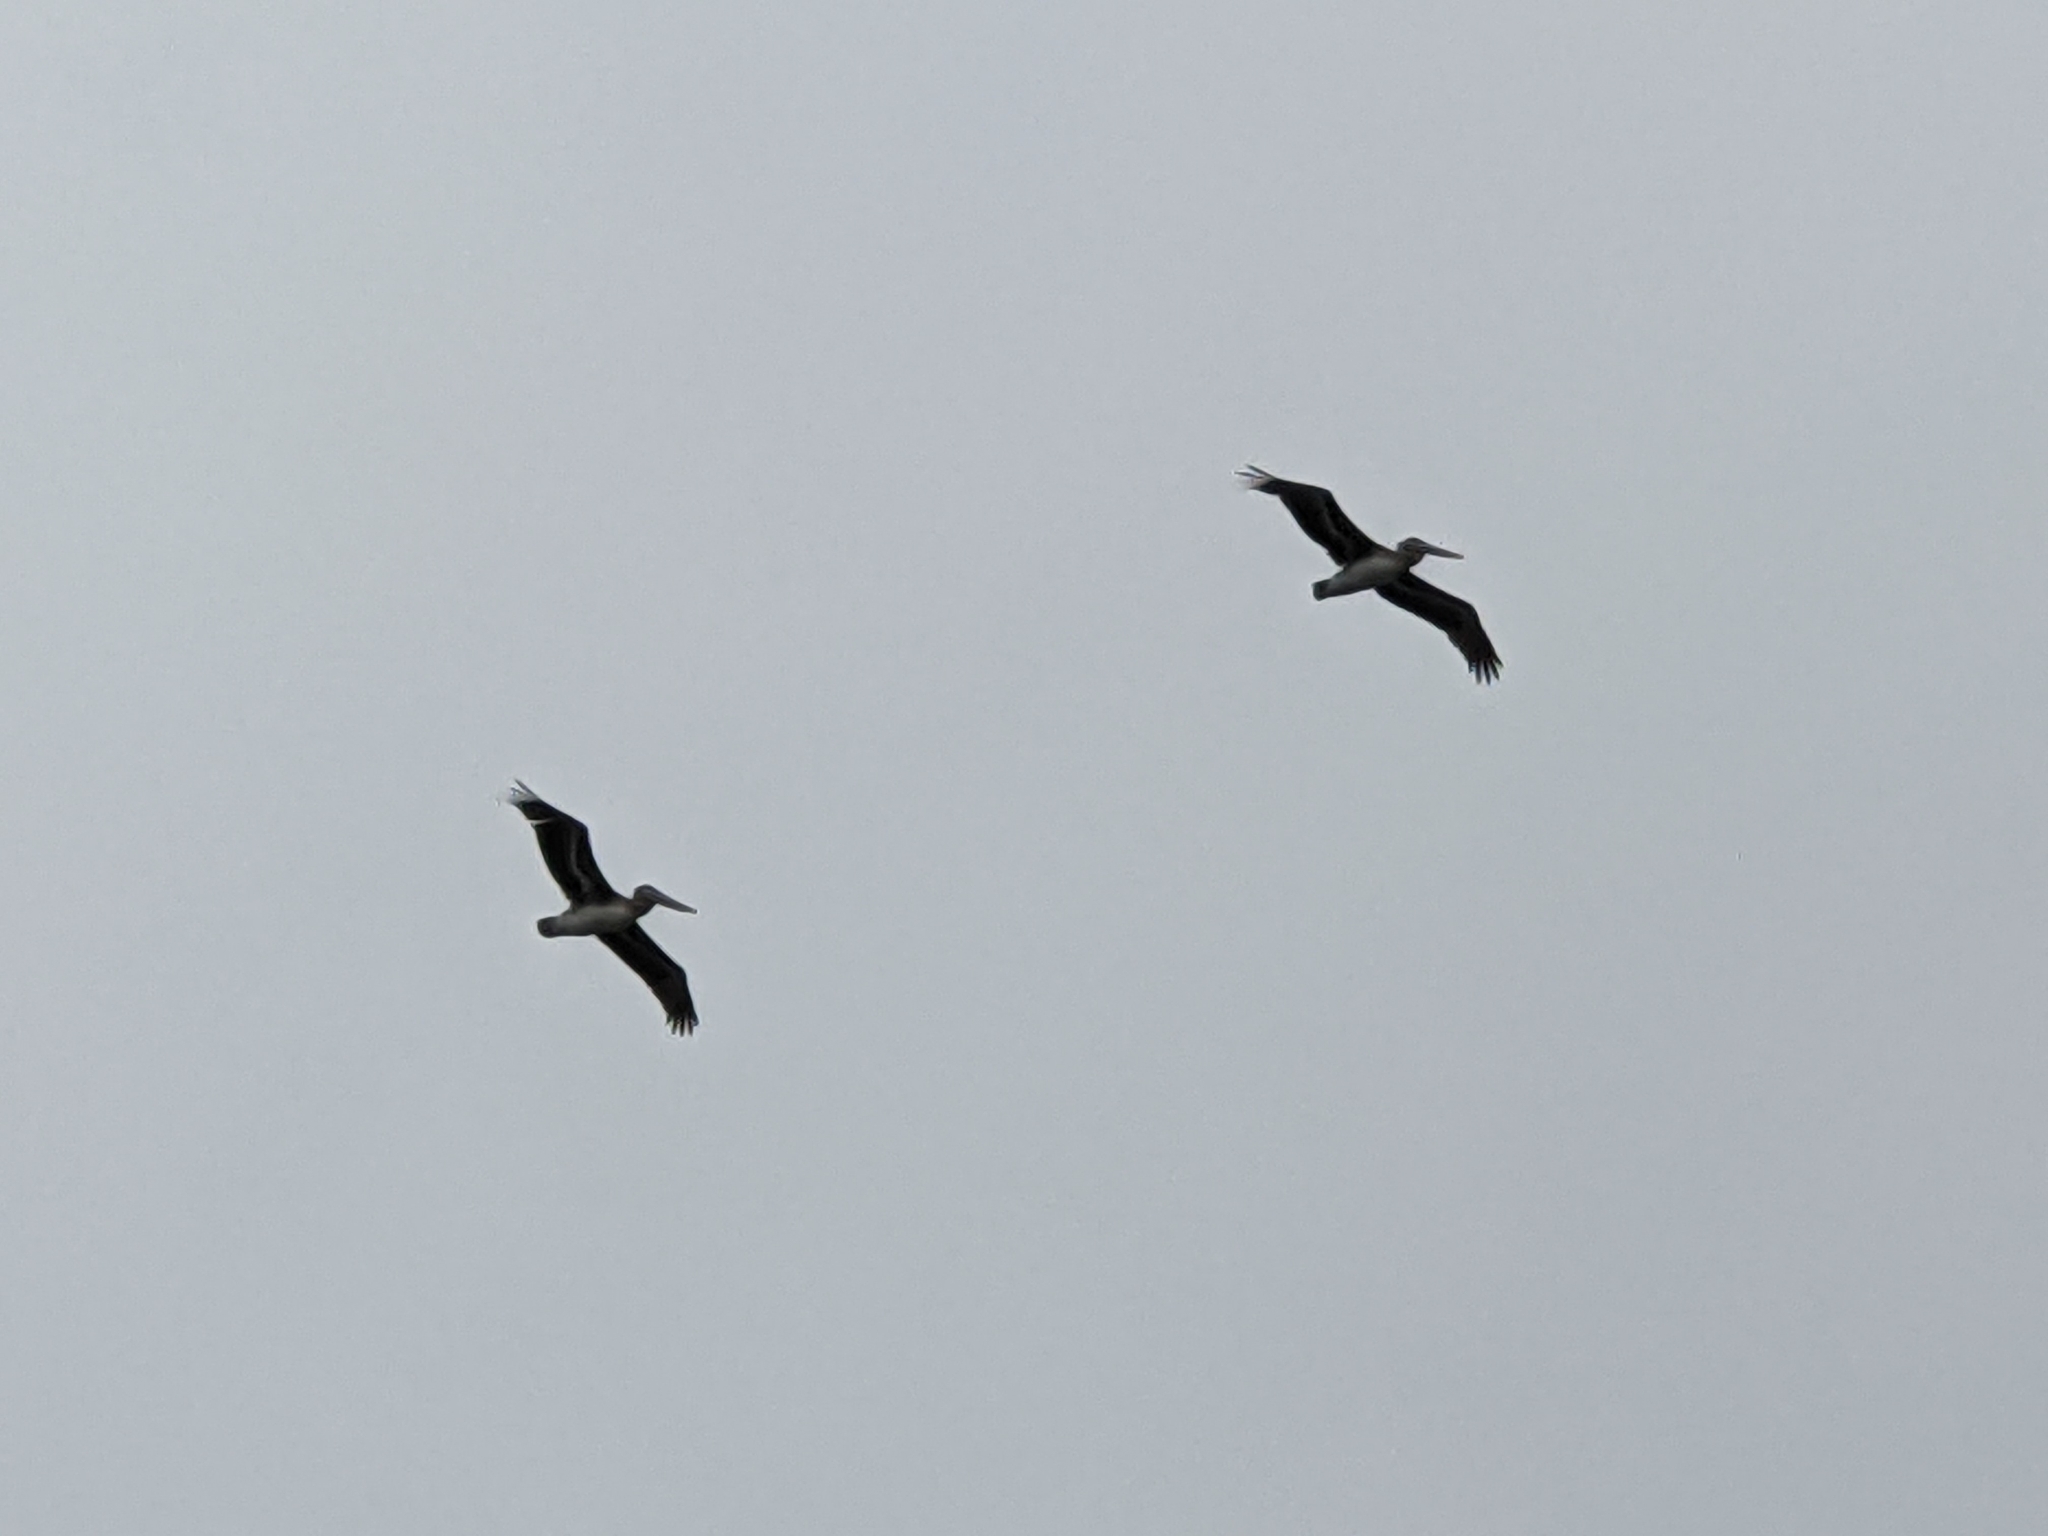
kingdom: Animalia
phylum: Chordata
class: Aves
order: Pelecaniformes
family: Pelecanidae
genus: Pelecanus
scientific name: Pelecanus occidentalis
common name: Brown pelican
